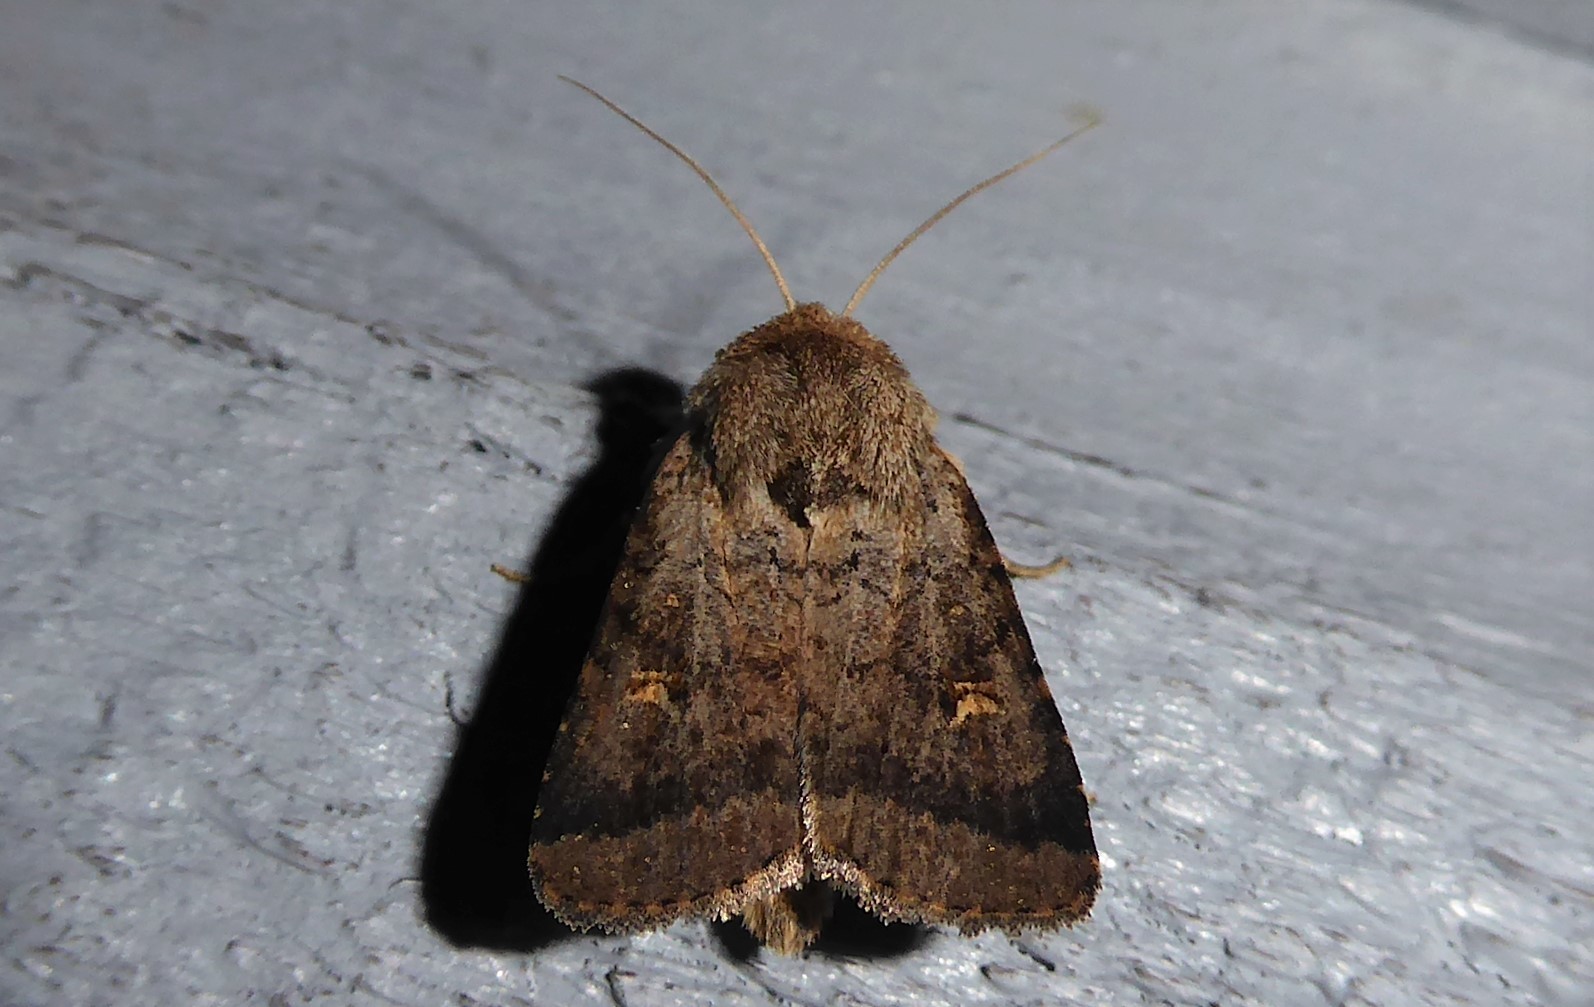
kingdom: Animalia
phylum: Arthropoda
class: Insecta
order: Lepidoptera
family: Noctuidae
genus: Proteuxoa
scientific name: Proteuxoa tetronycha
